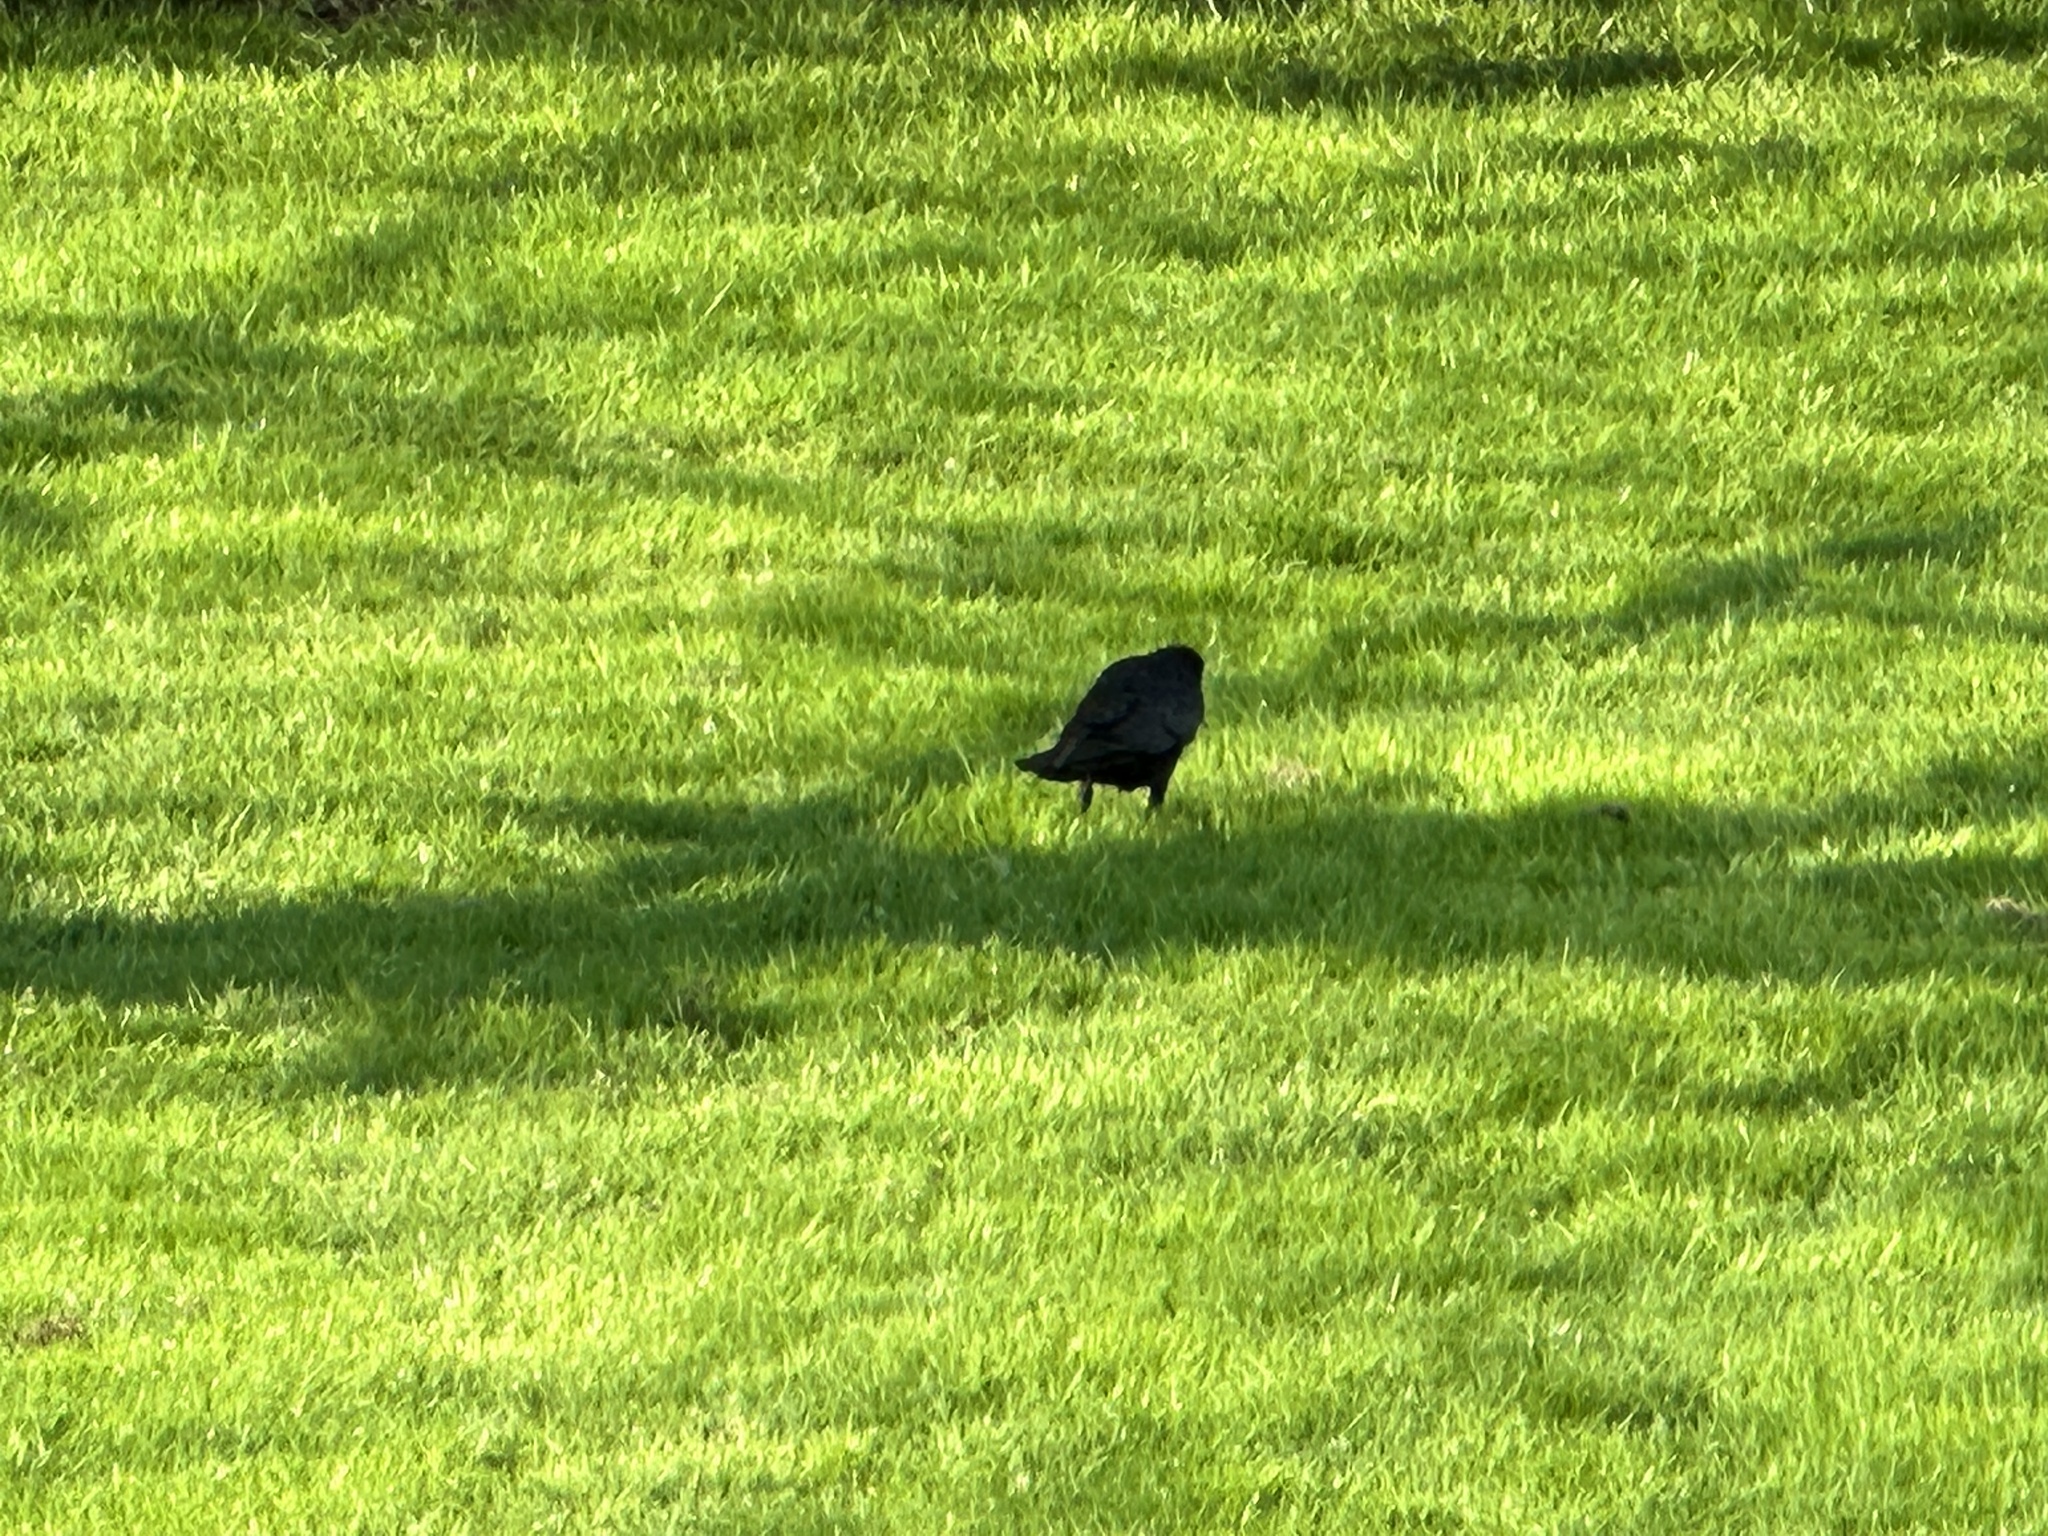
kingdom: Animalia
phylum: Chordata
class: Aves
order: Passeriformes
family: Corvidae
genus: Corvus
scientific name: Corvus corone
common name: Carrion crow
